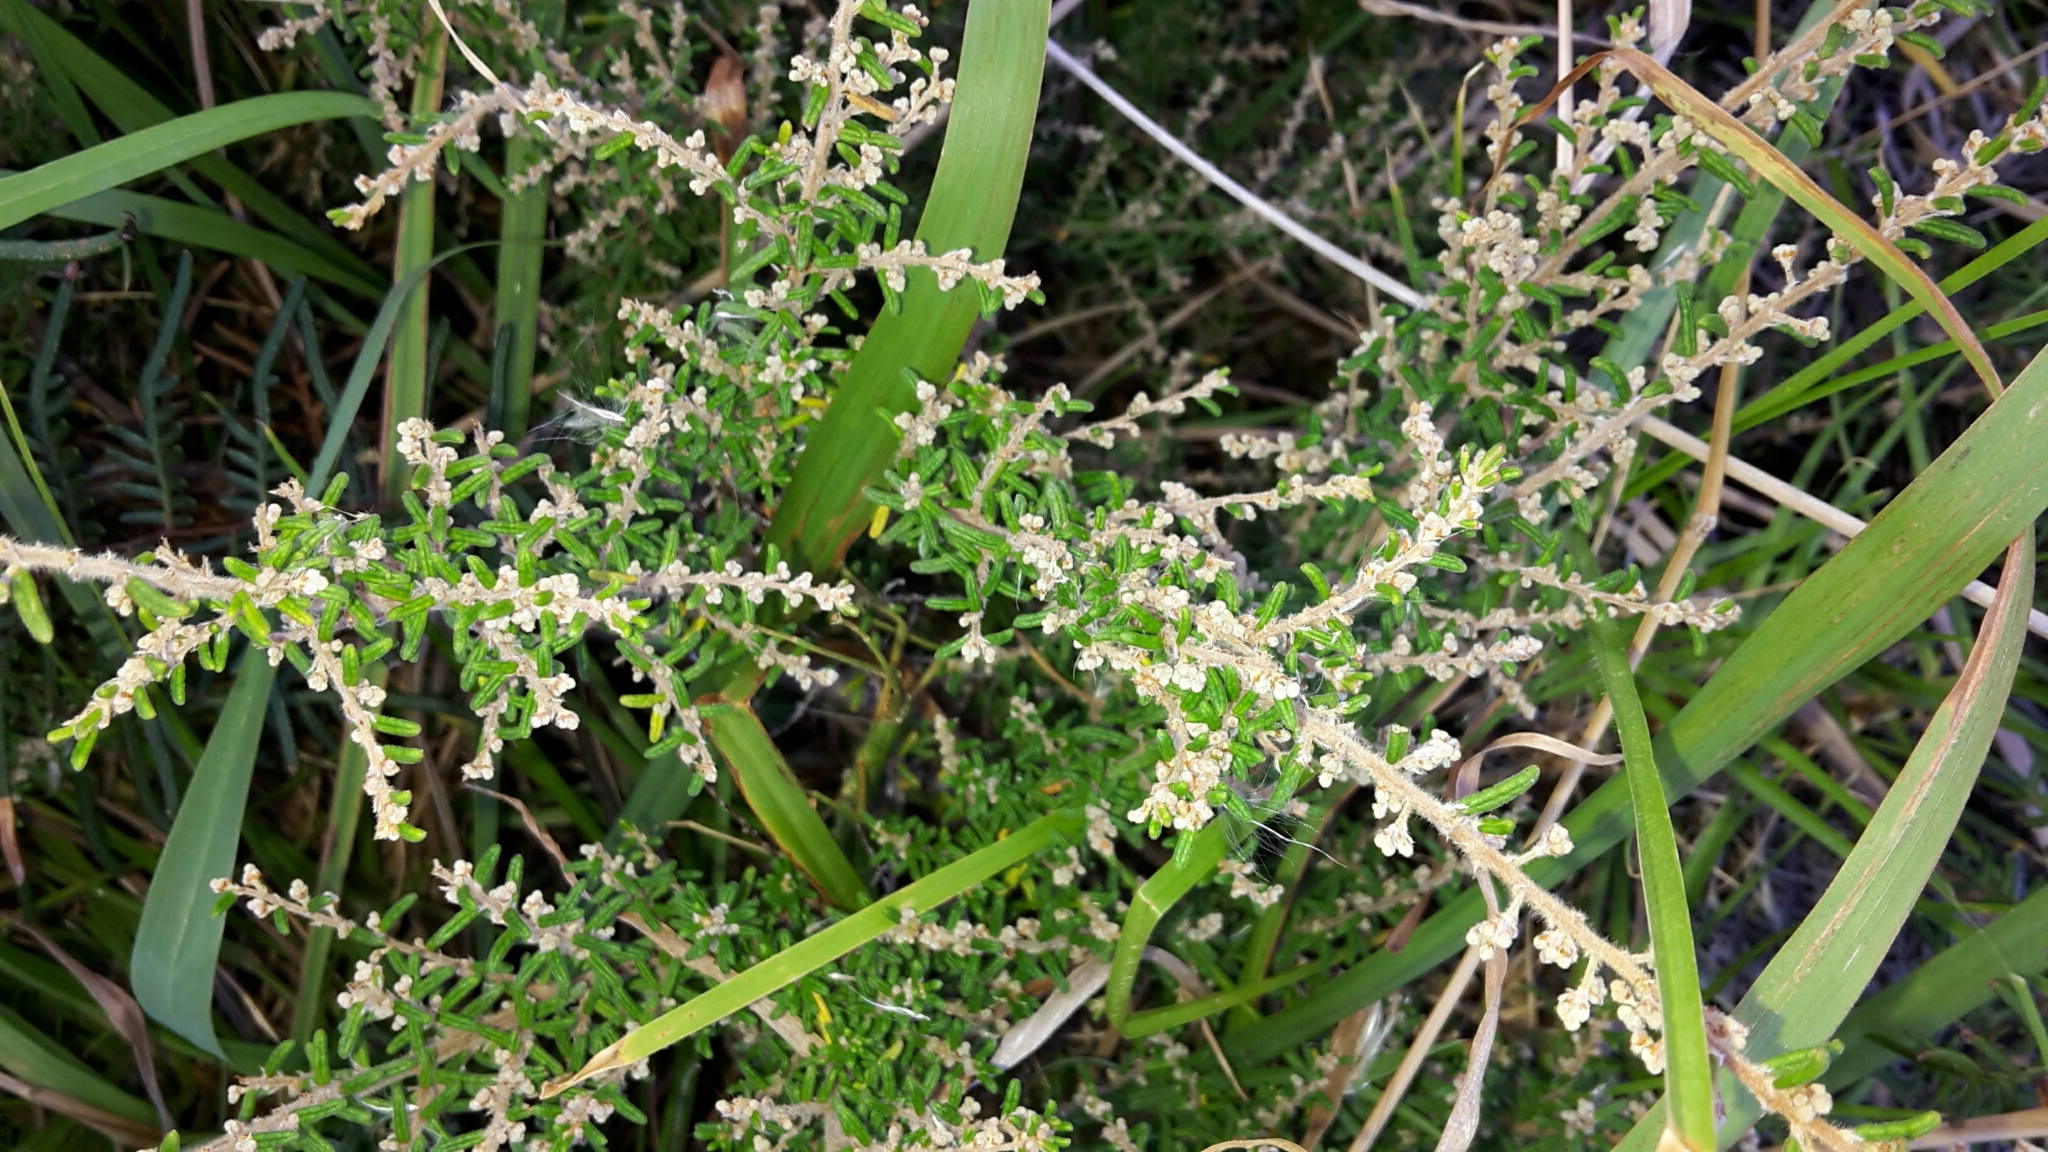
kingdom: Plantae
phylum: Tracheophyta
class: Magnoliopsida
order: Rosales
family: Rhamnaceae
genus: Pomaderris
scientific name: Pomaderris amoena
